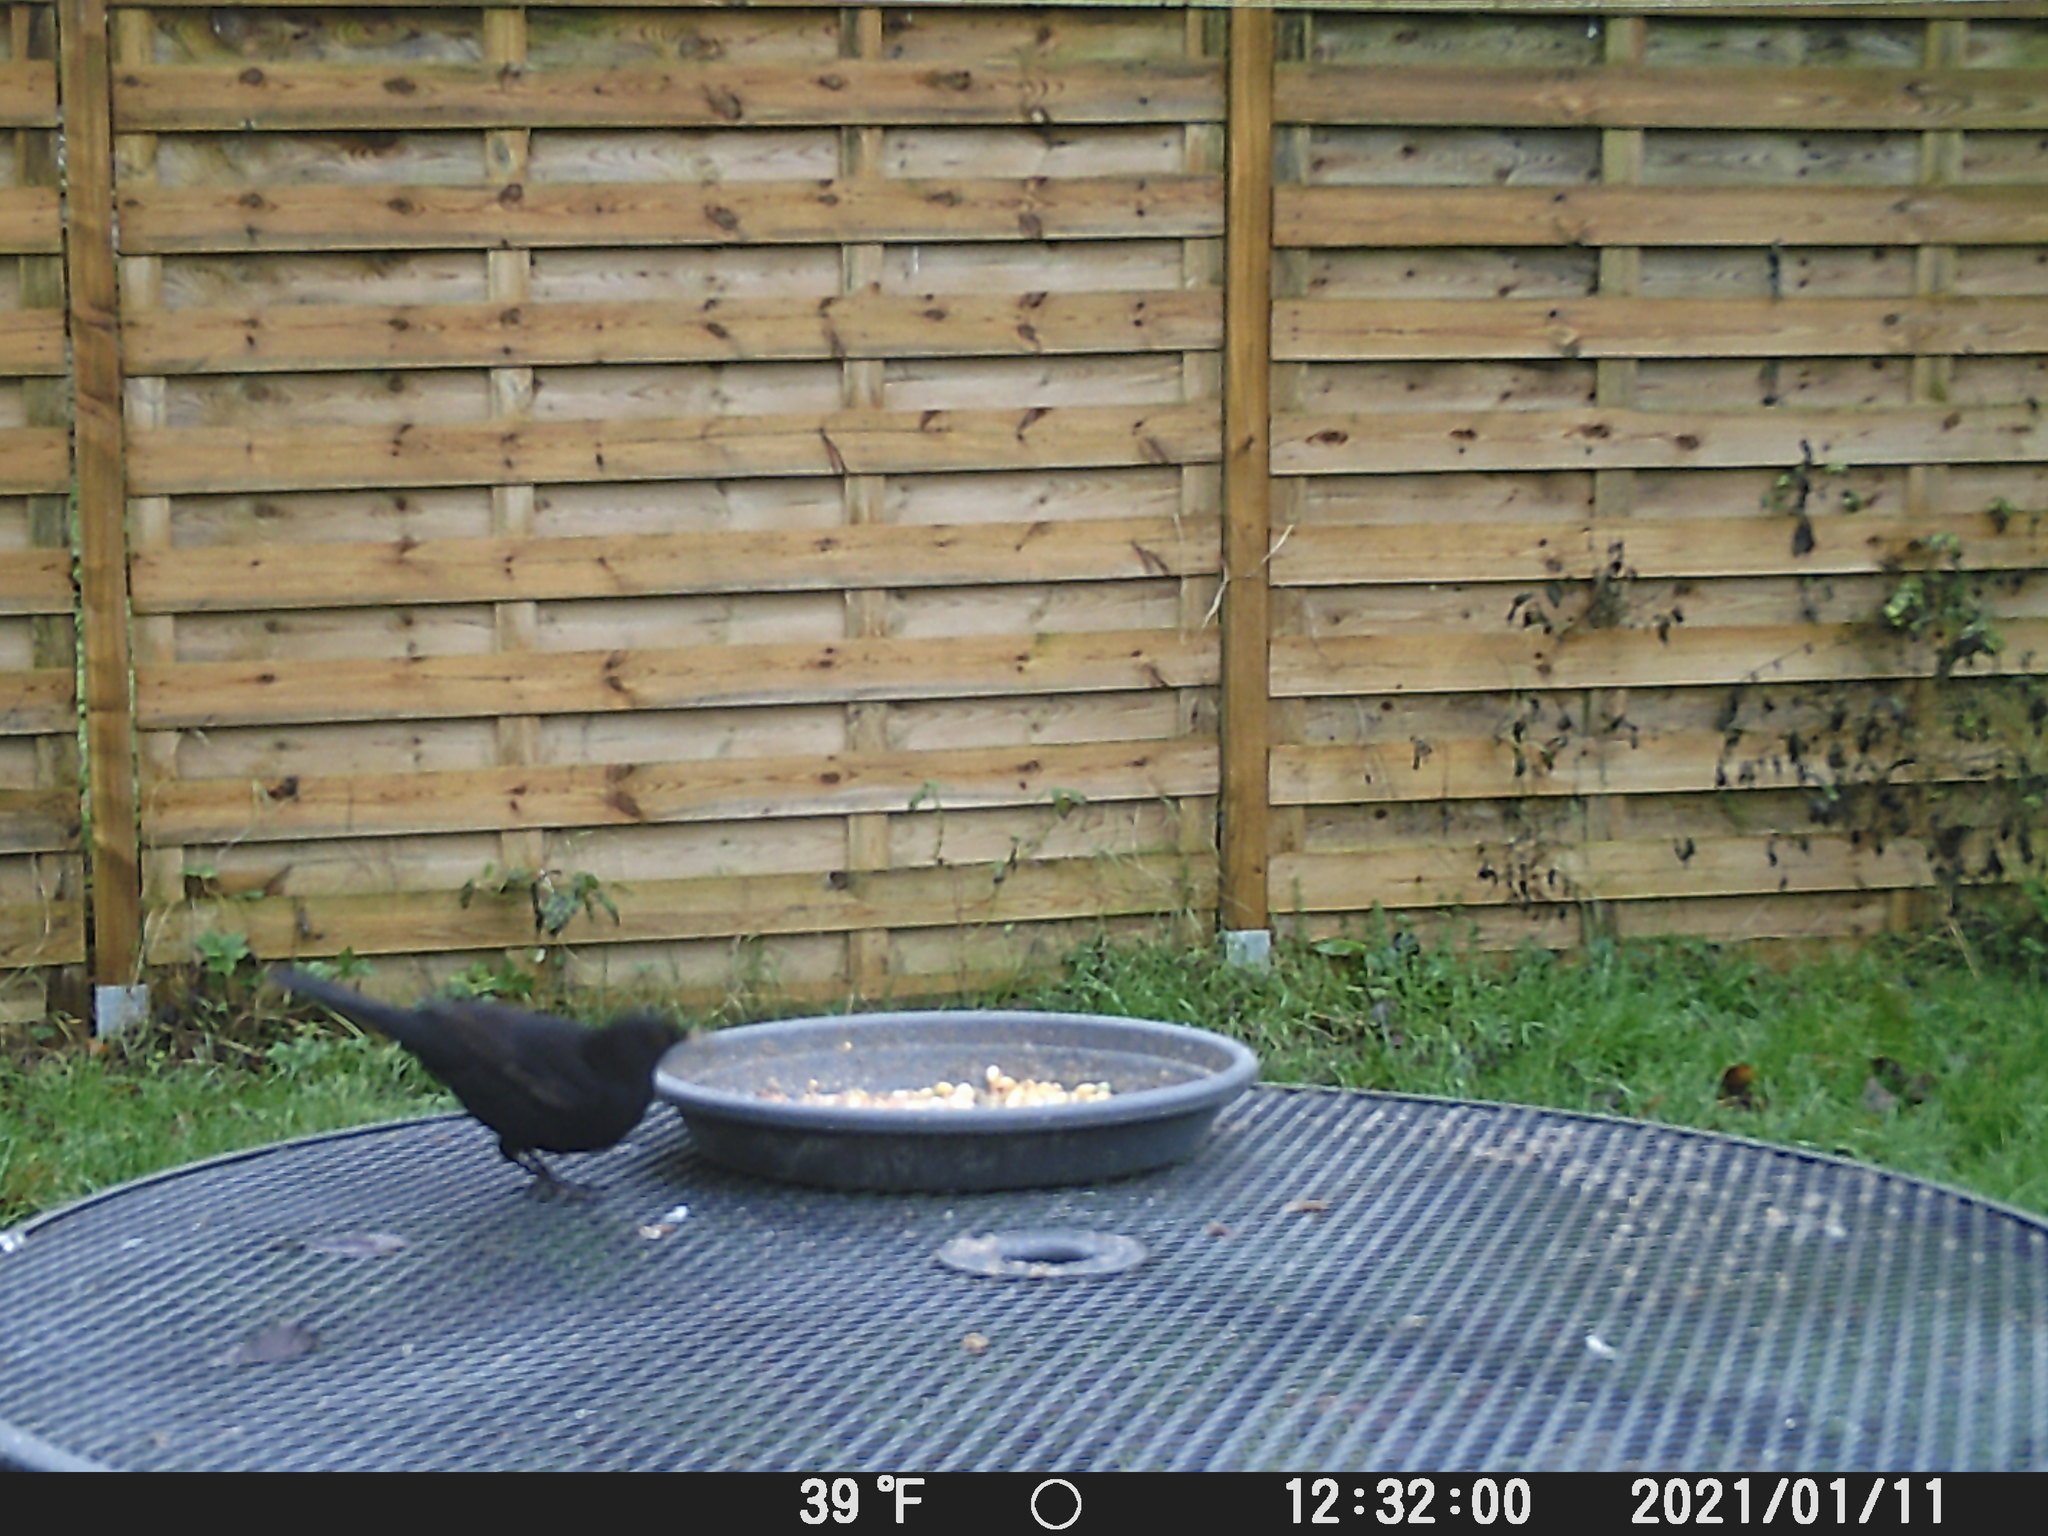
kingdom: Animalia
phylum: Chordata
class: Aves
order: Passeriformes
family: Turdidae
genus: Turdus
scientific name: Turdus merula
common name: Common blackbird
